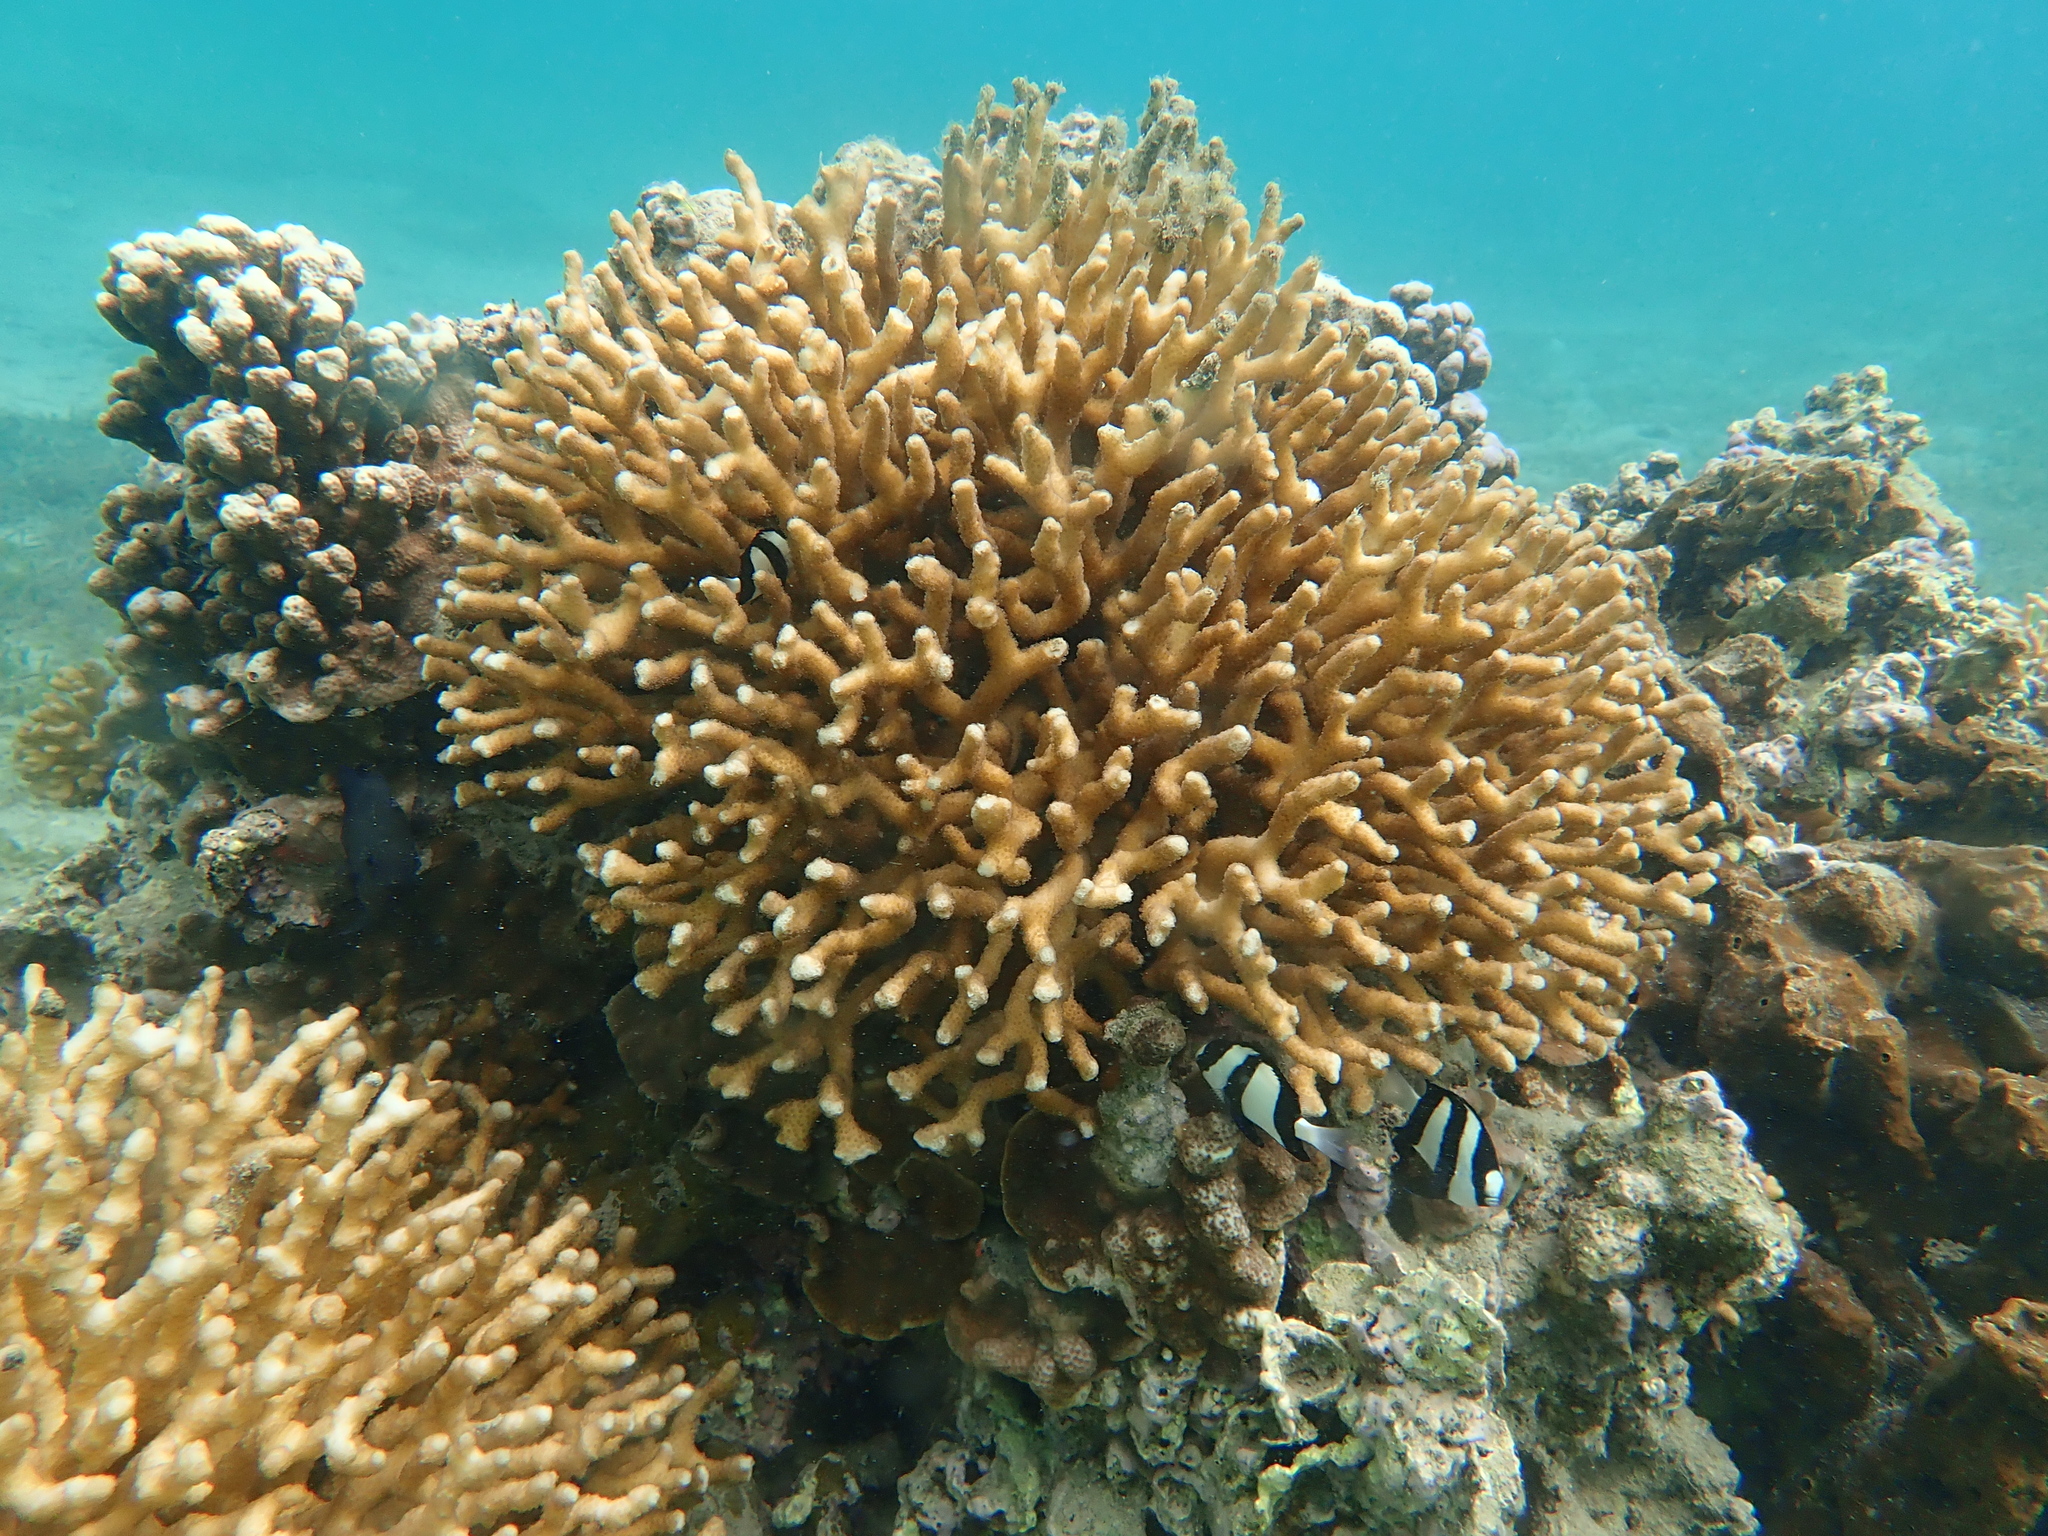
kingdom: Animalia
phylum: Chordata
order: Perciformes
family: Pomacentridae
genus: Dascyllus
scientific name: Dascyllus aruanus
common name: Humbug dascyllus
